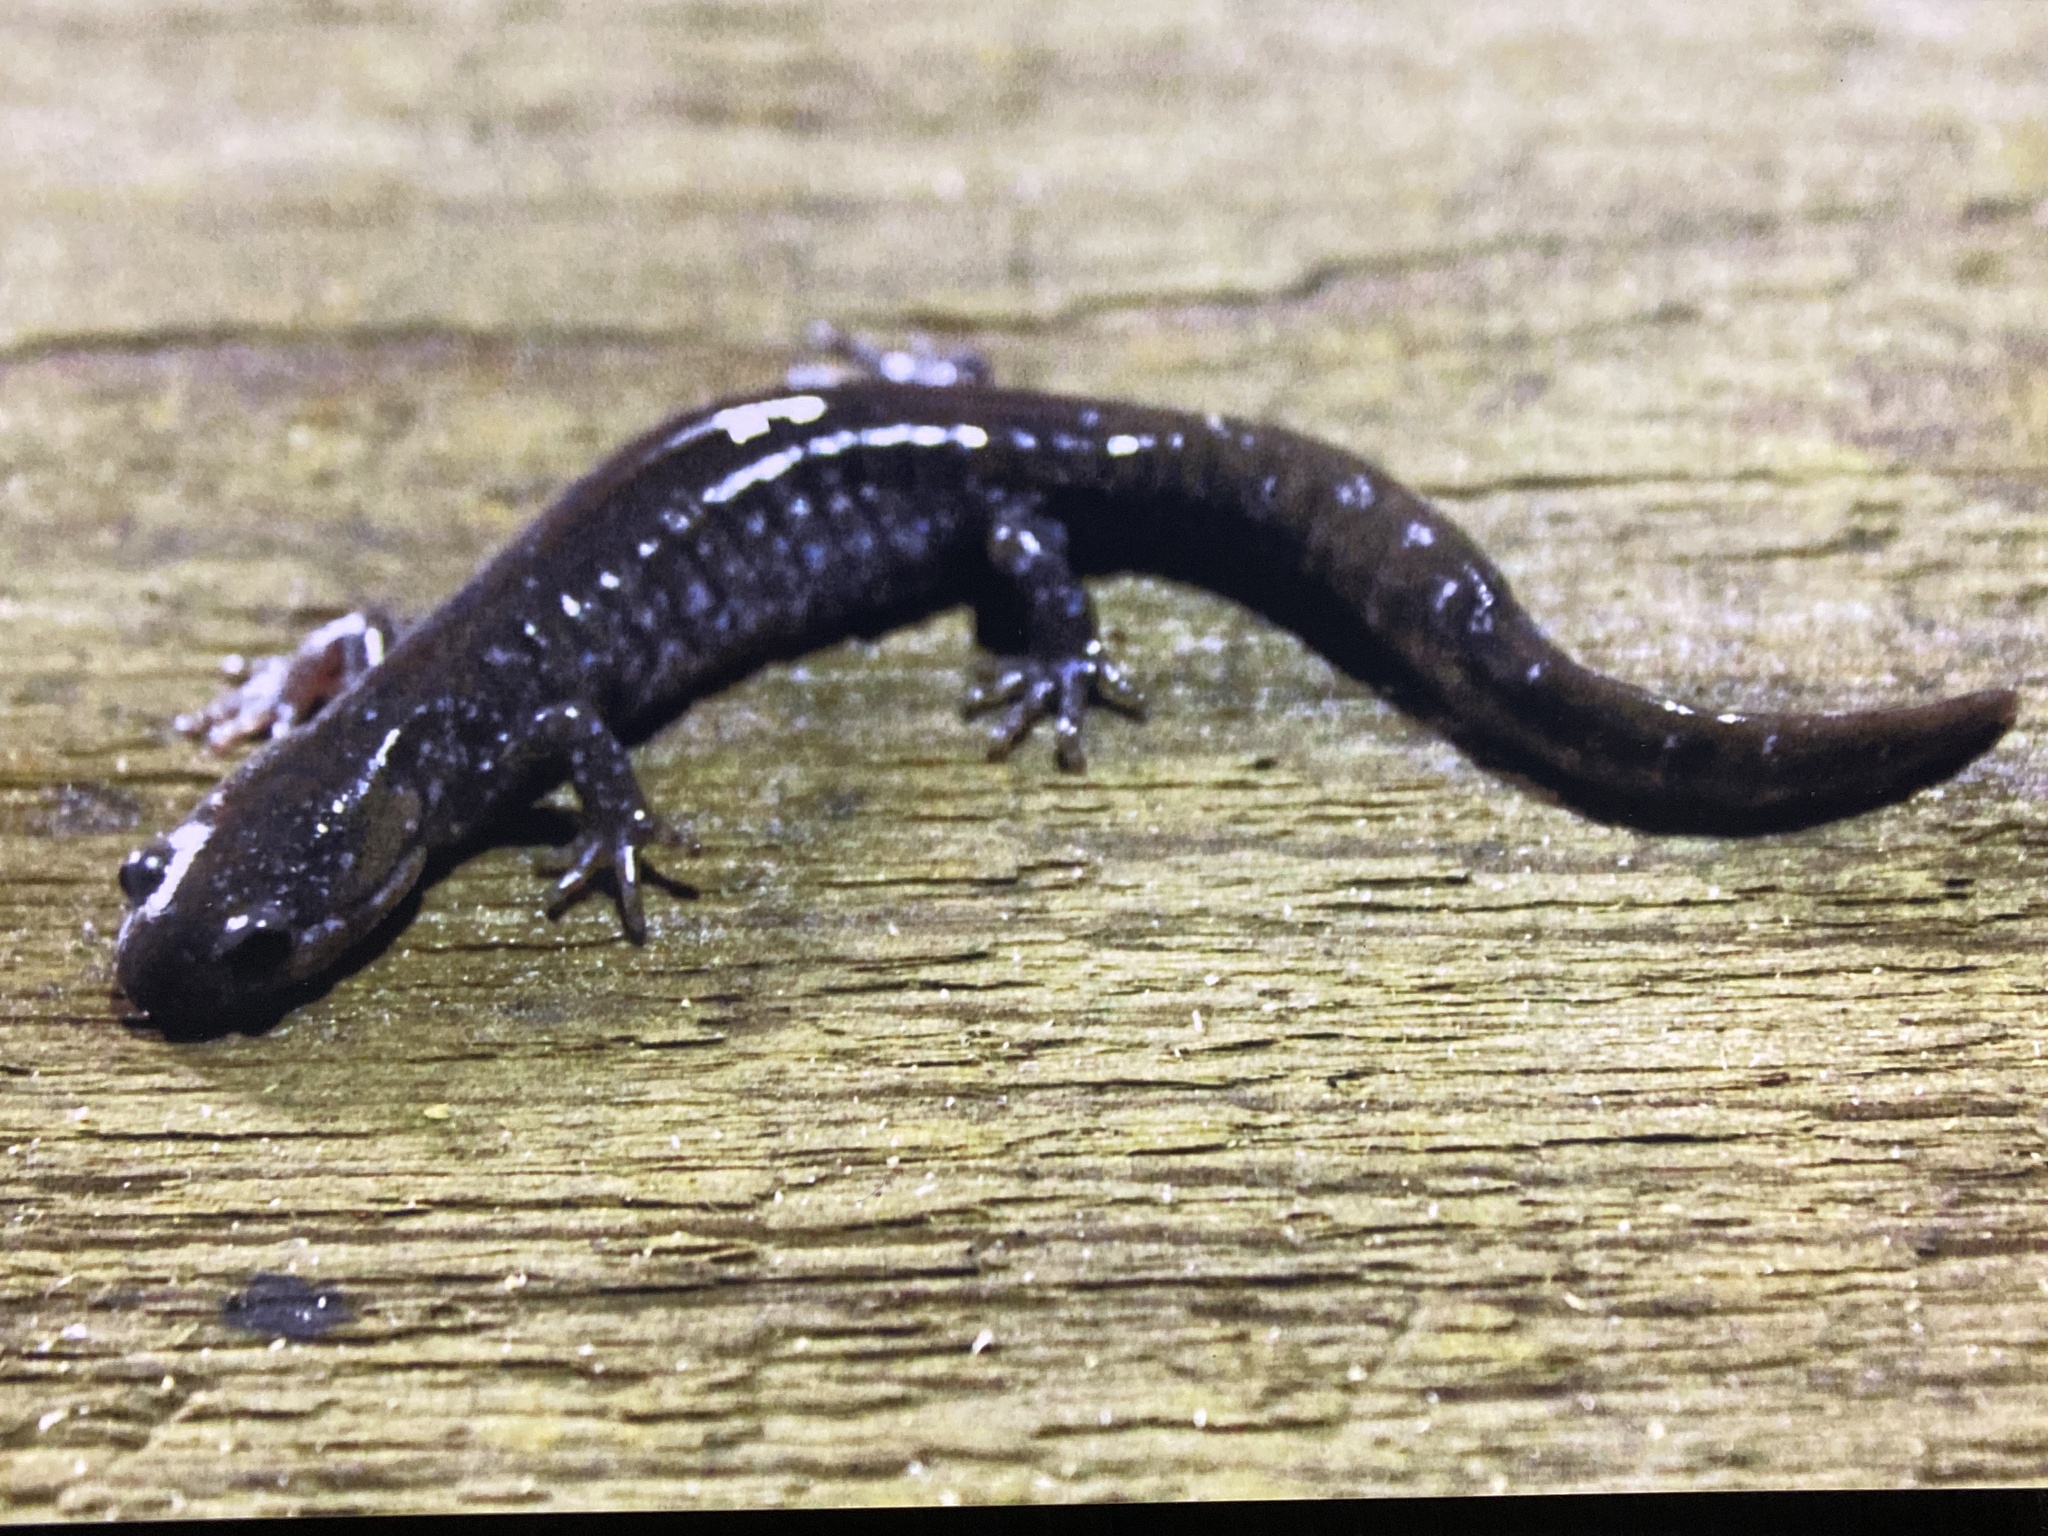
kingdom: Animalia
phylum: Chordata
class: Amphibia
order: Caudata
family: Ambystomatidae
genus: Ambystoma
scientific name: Ambystoma laterale
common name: Blue-spotted salamander
